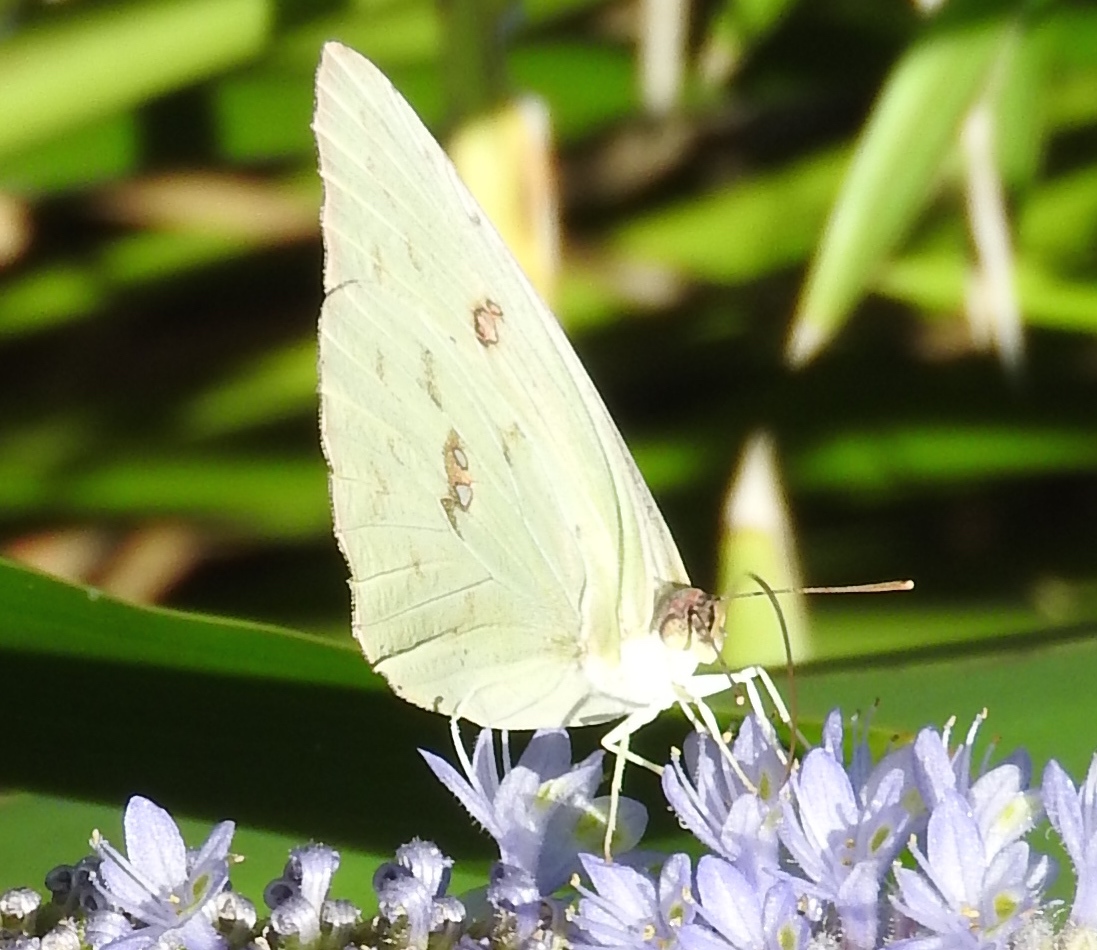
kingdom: Animalia
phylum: Arthropoda
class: Insecta
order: Lepidoptera
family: Pieridae
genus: Phoebis
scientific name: Phoebis marcellina
